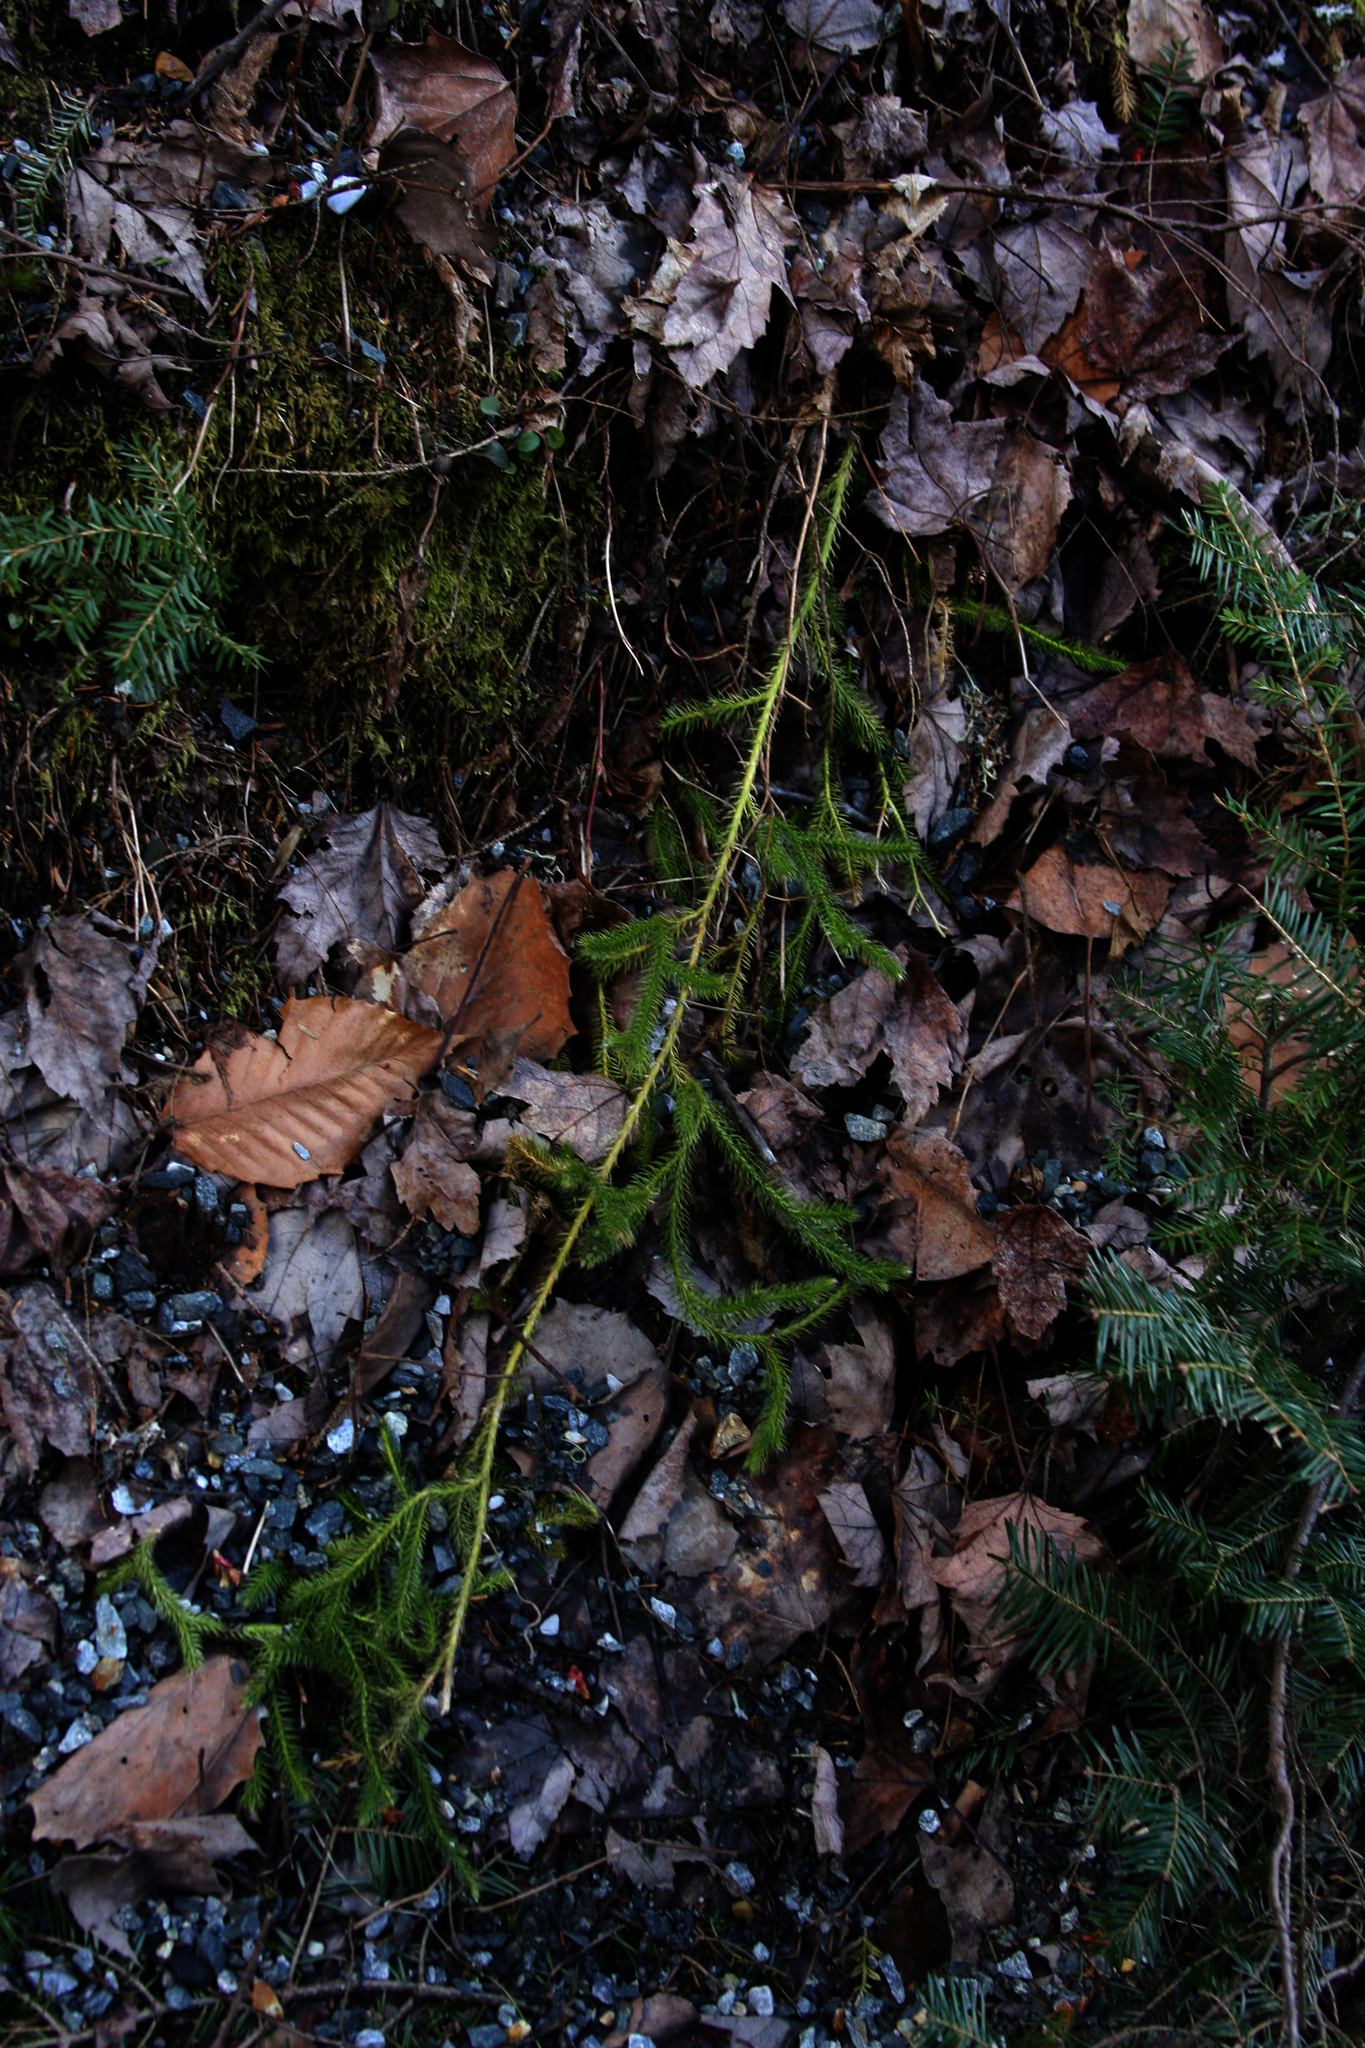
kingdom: Plantae
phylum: Tracheophyta
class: Lycopodiopsida
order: Lycopodiales
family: Lycopodiaceae
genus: Lycopodium
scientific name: Lycopodium clavatum
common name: Stag's-horn clubmoss
